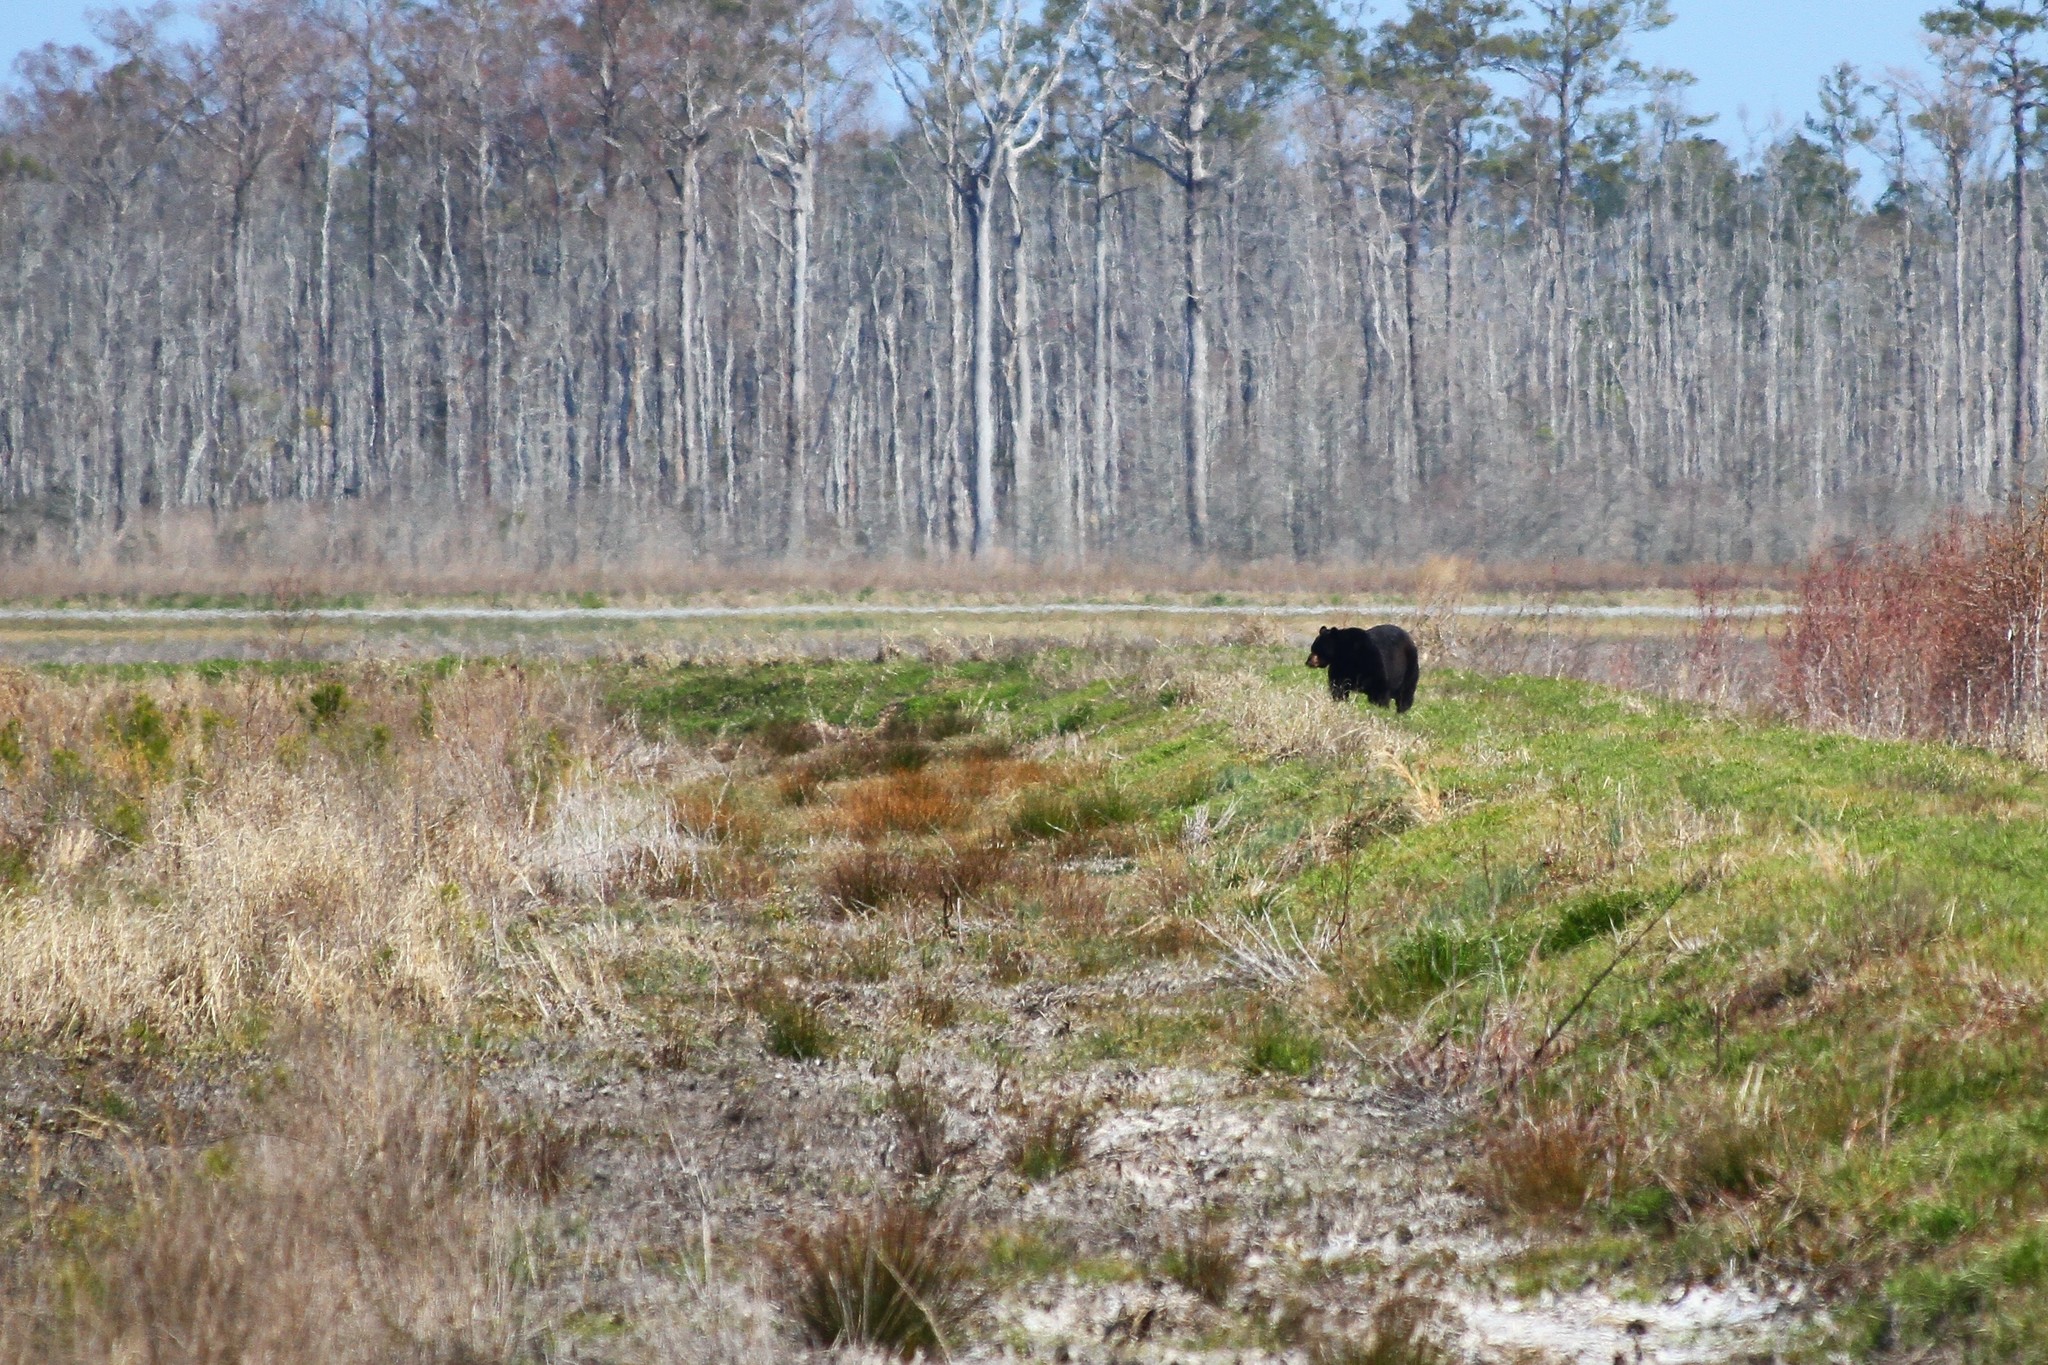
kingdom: Animalia
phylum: Chordata
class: Mammalia
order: Carnivora
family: Ursidae
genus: Ursus
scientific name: Ursus americanus
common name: American black bear
